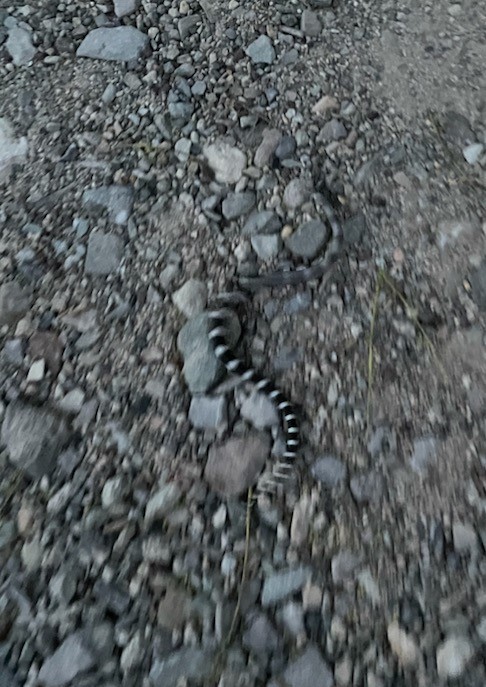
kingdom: Animalia
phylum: Chordata
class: Squamata
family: Colubridae
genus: Lampropeltis
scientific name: Lampropeltis californiae
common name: California kingsnake
